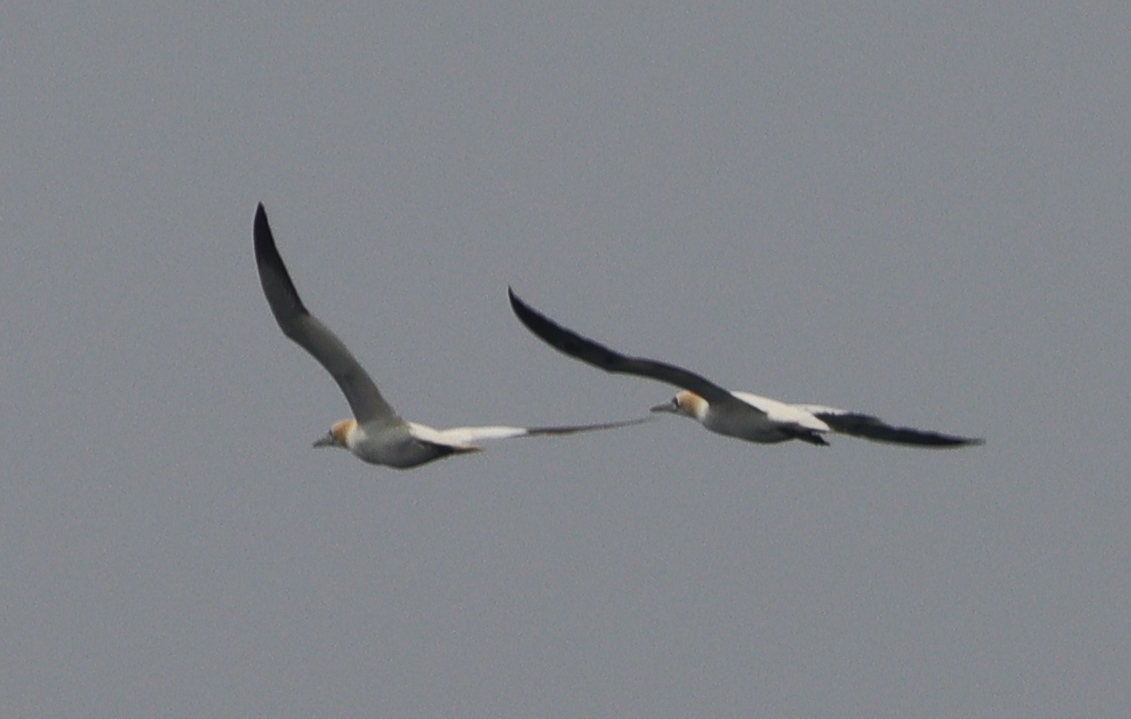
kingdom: Animalia
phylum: Chordata
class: Aves
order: Suliformes
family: Sulidae
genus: Morus
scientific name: Morus bassanus
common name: Northern gannet
